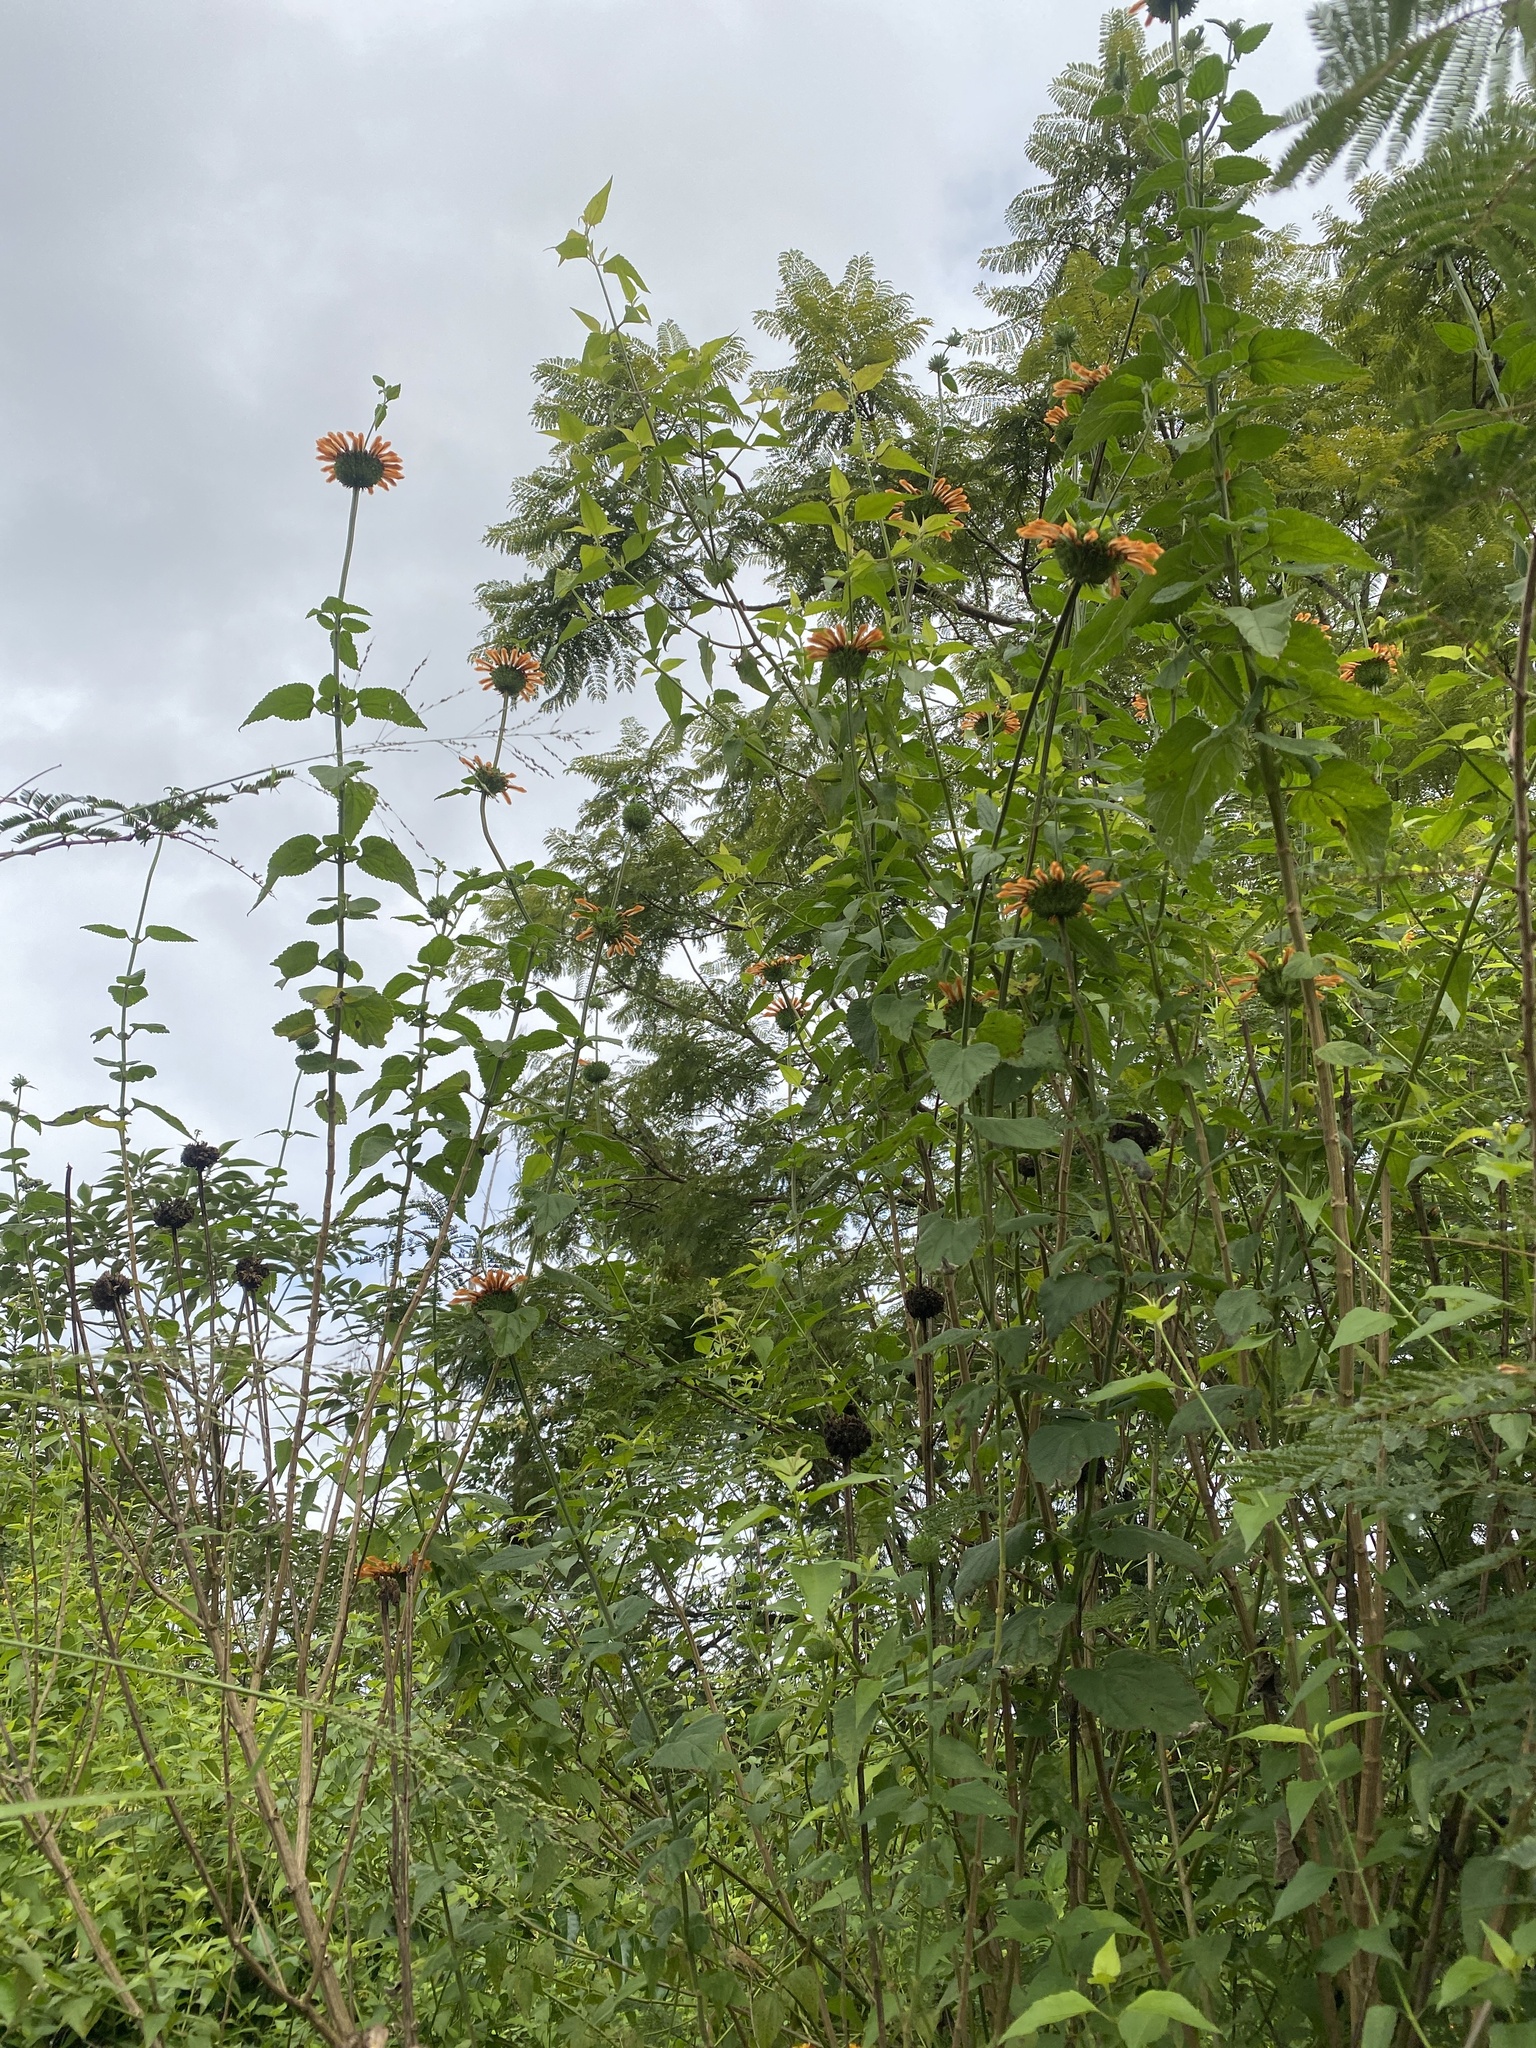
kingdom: Plantae
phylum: Tracheophyta
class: Magnoliopsida
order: Lamiales
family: Lamiaceae
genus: Leonotis
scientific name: Leonotis nepetifolia
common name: Christmas candlestick
